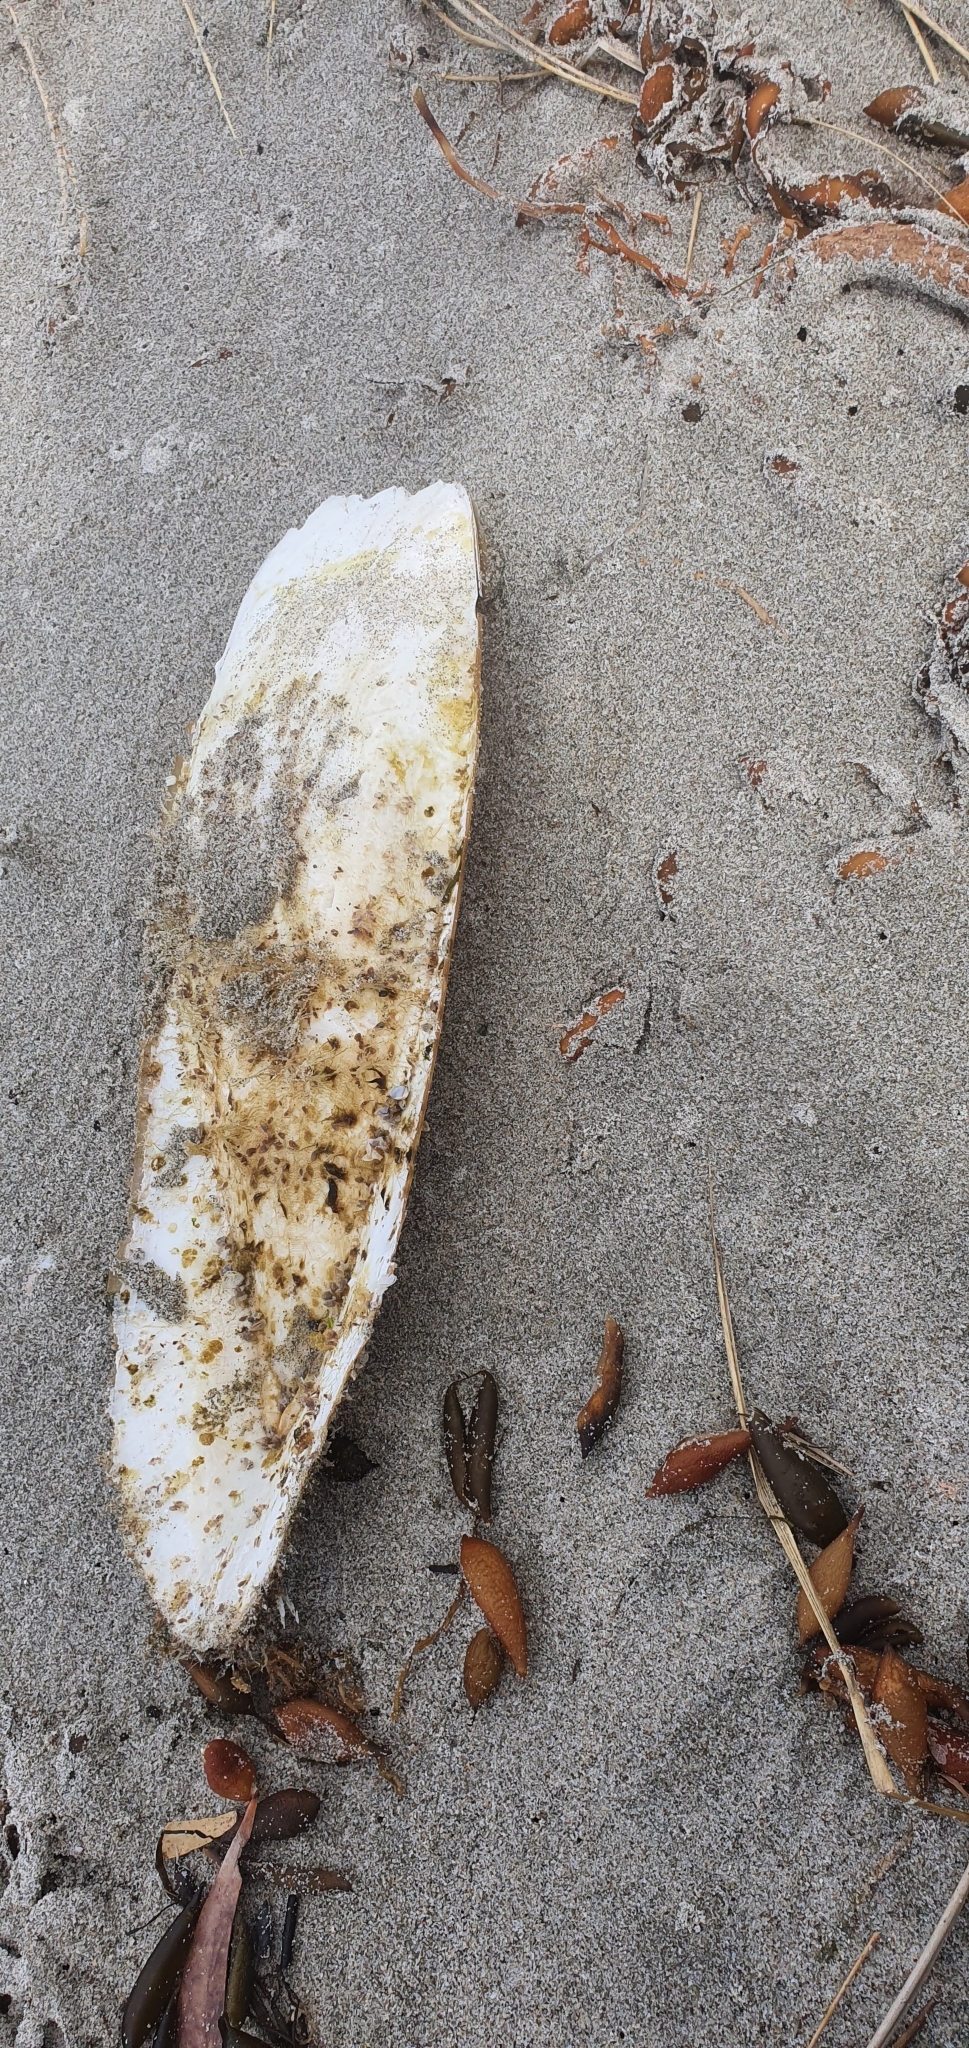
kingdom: Animalia
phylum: Mollusca
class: Cephalopoda
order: Sepiida
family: Sepiidae
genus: Ascarosepion
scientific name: Ascarosepion apama
